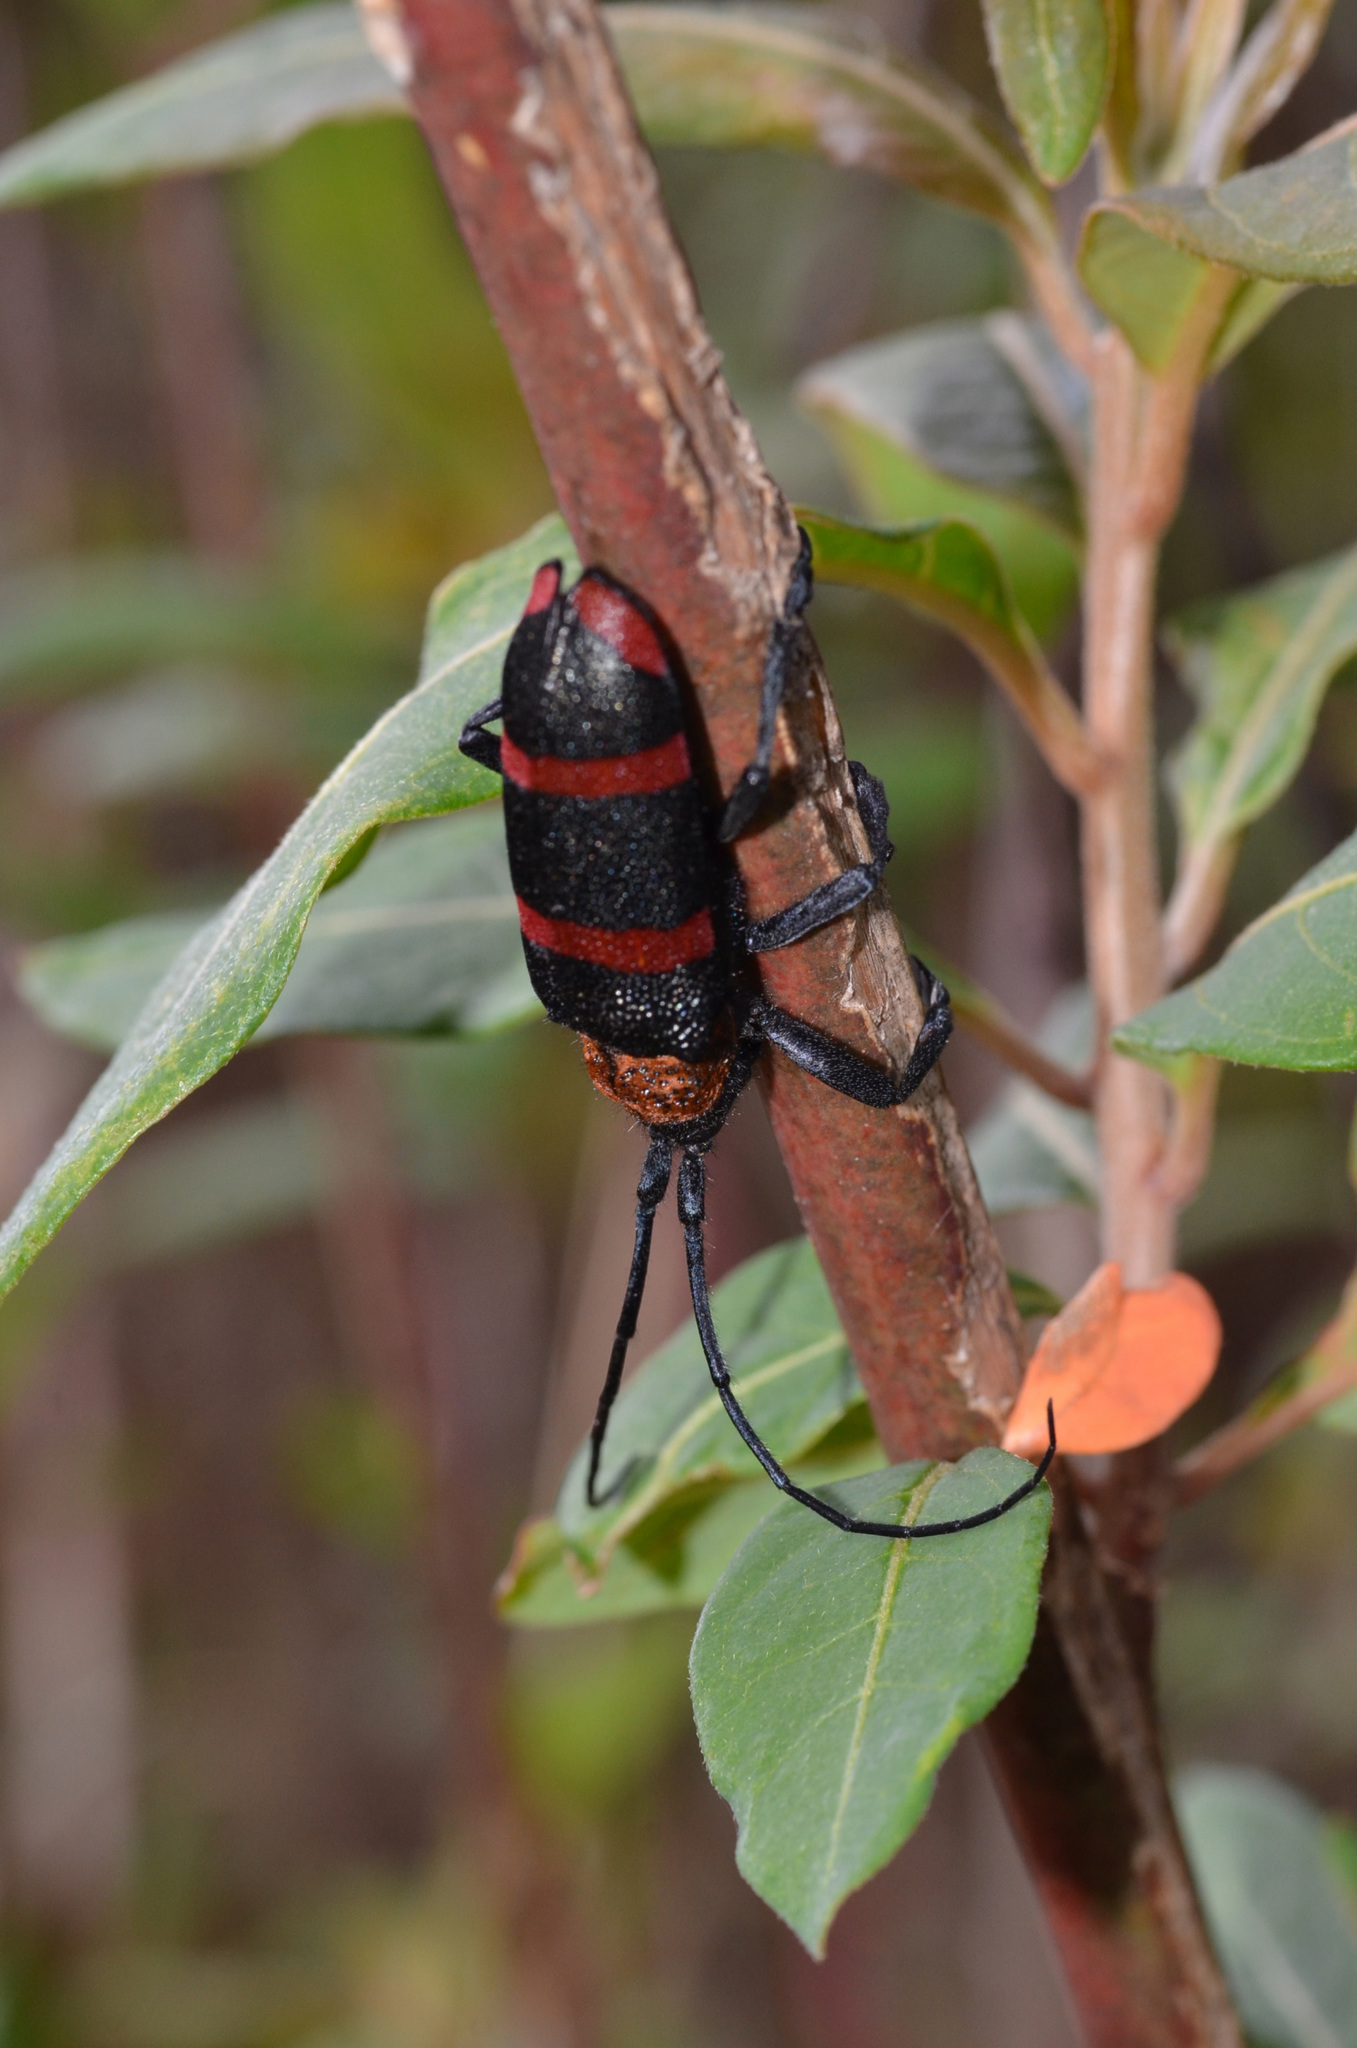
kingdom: Animalia
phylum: Arthropoda
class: Insecta
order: Coleoptera
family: Cerambycidae
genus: Ceroplesis
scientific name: Ceroplesis hauseri
